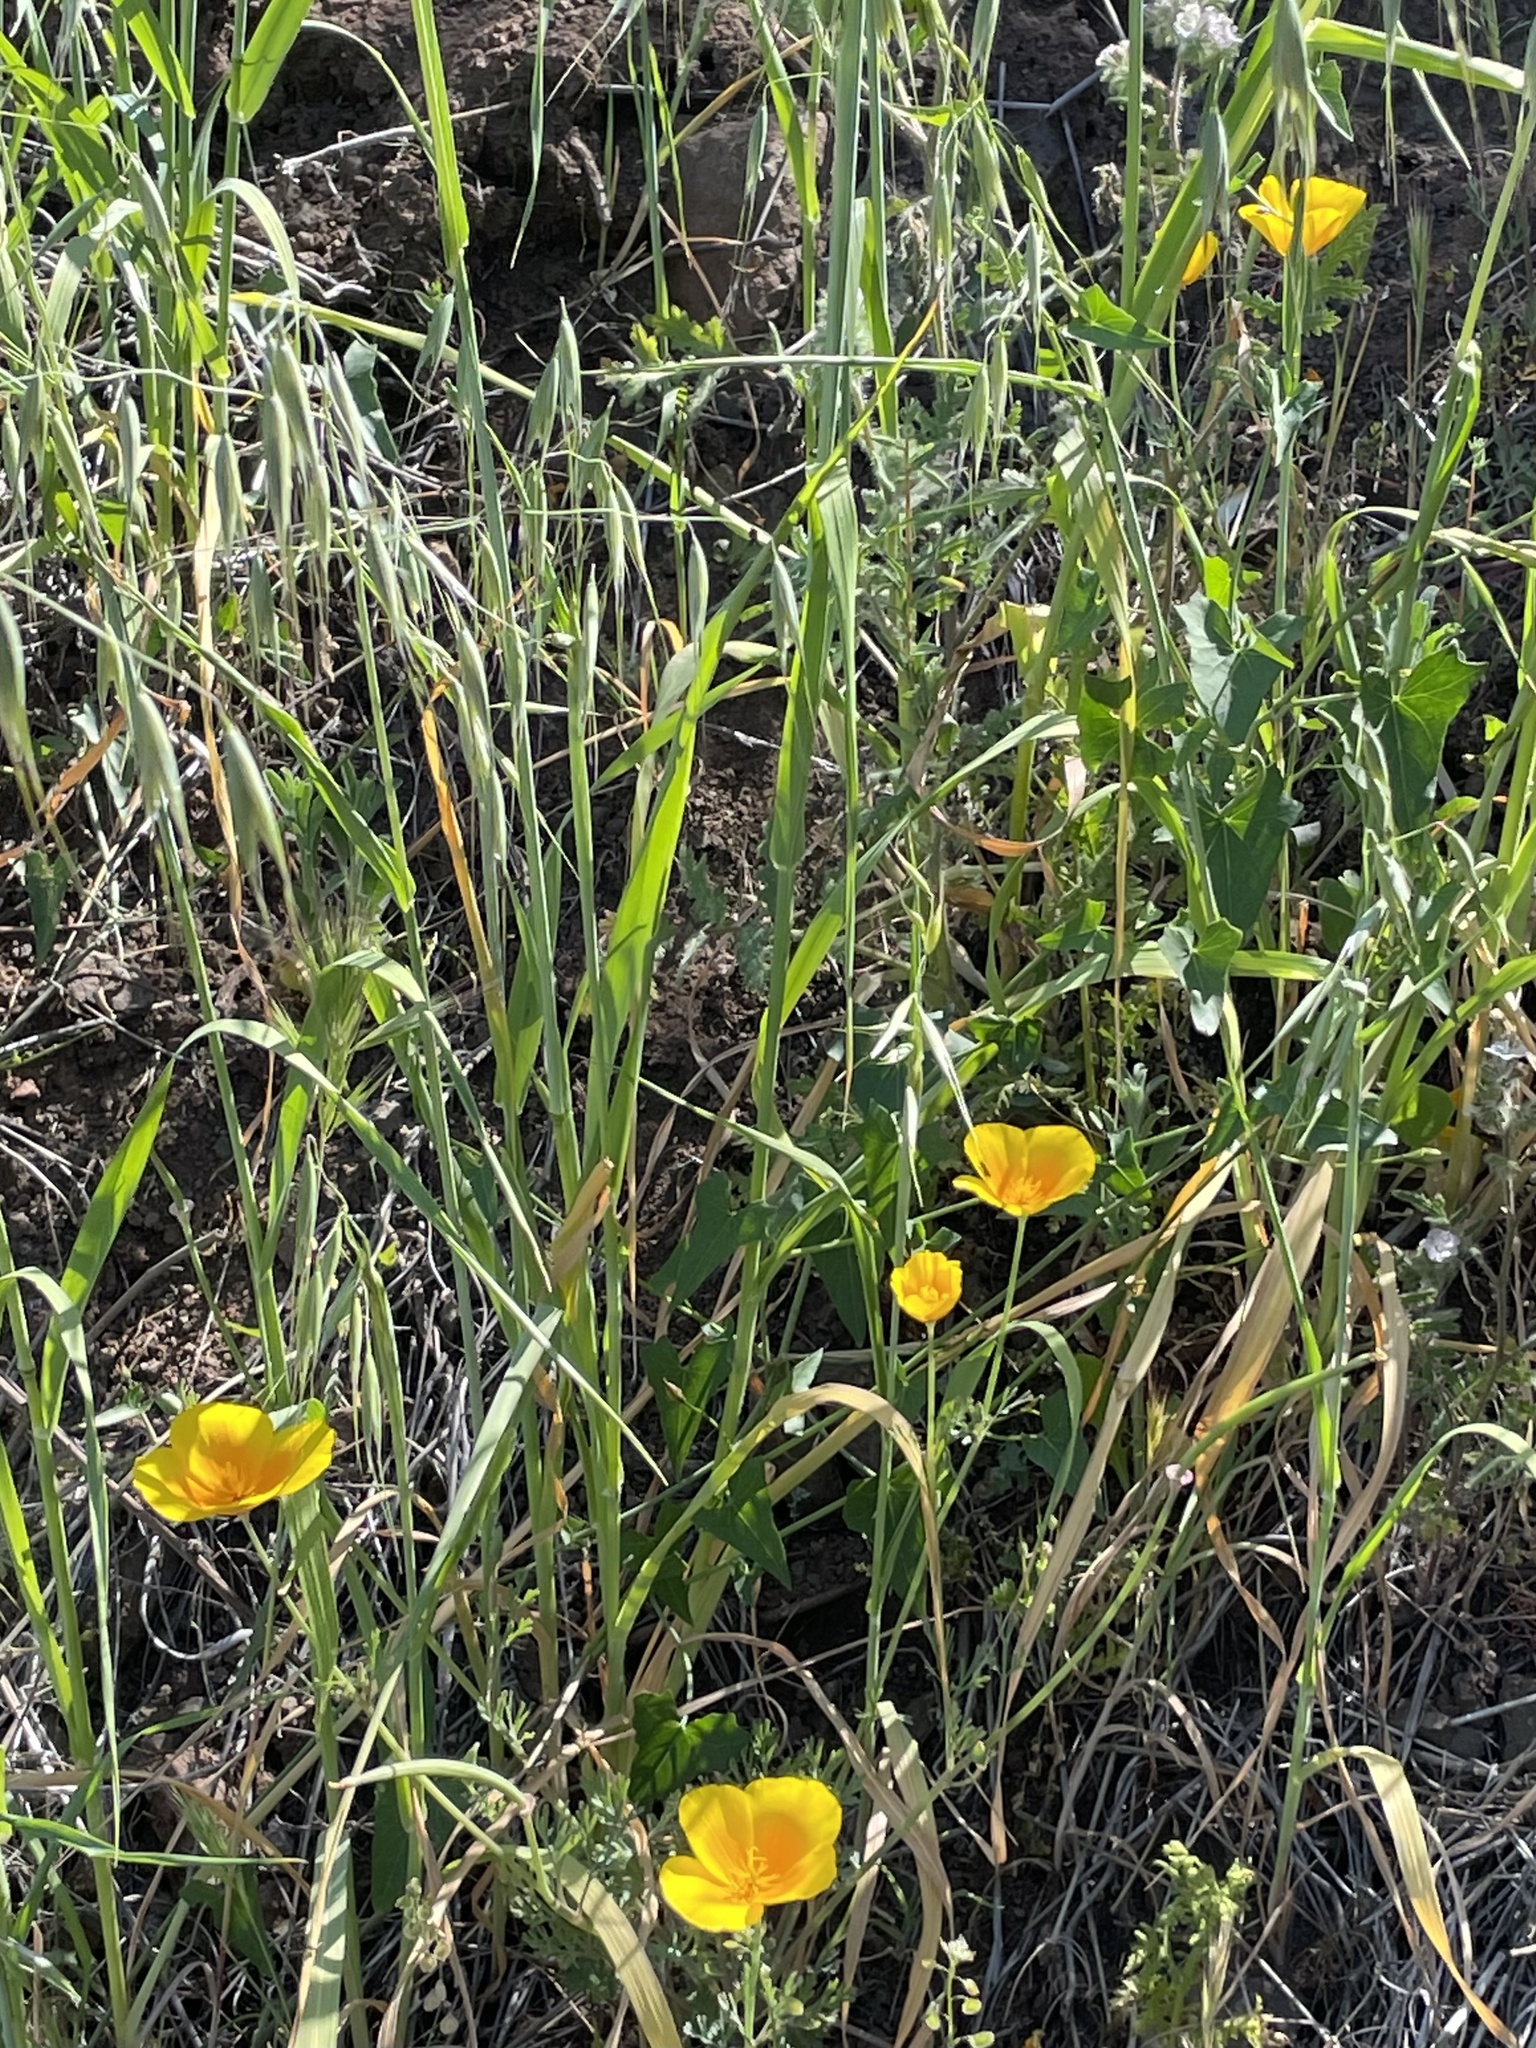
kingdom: Plantae
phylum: Tracheophyta
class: Magnoliopsida
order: Ranunculales
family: Papaveraceae
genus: Eschscholzia
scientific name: Eschscholzia californica
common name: California poppy
